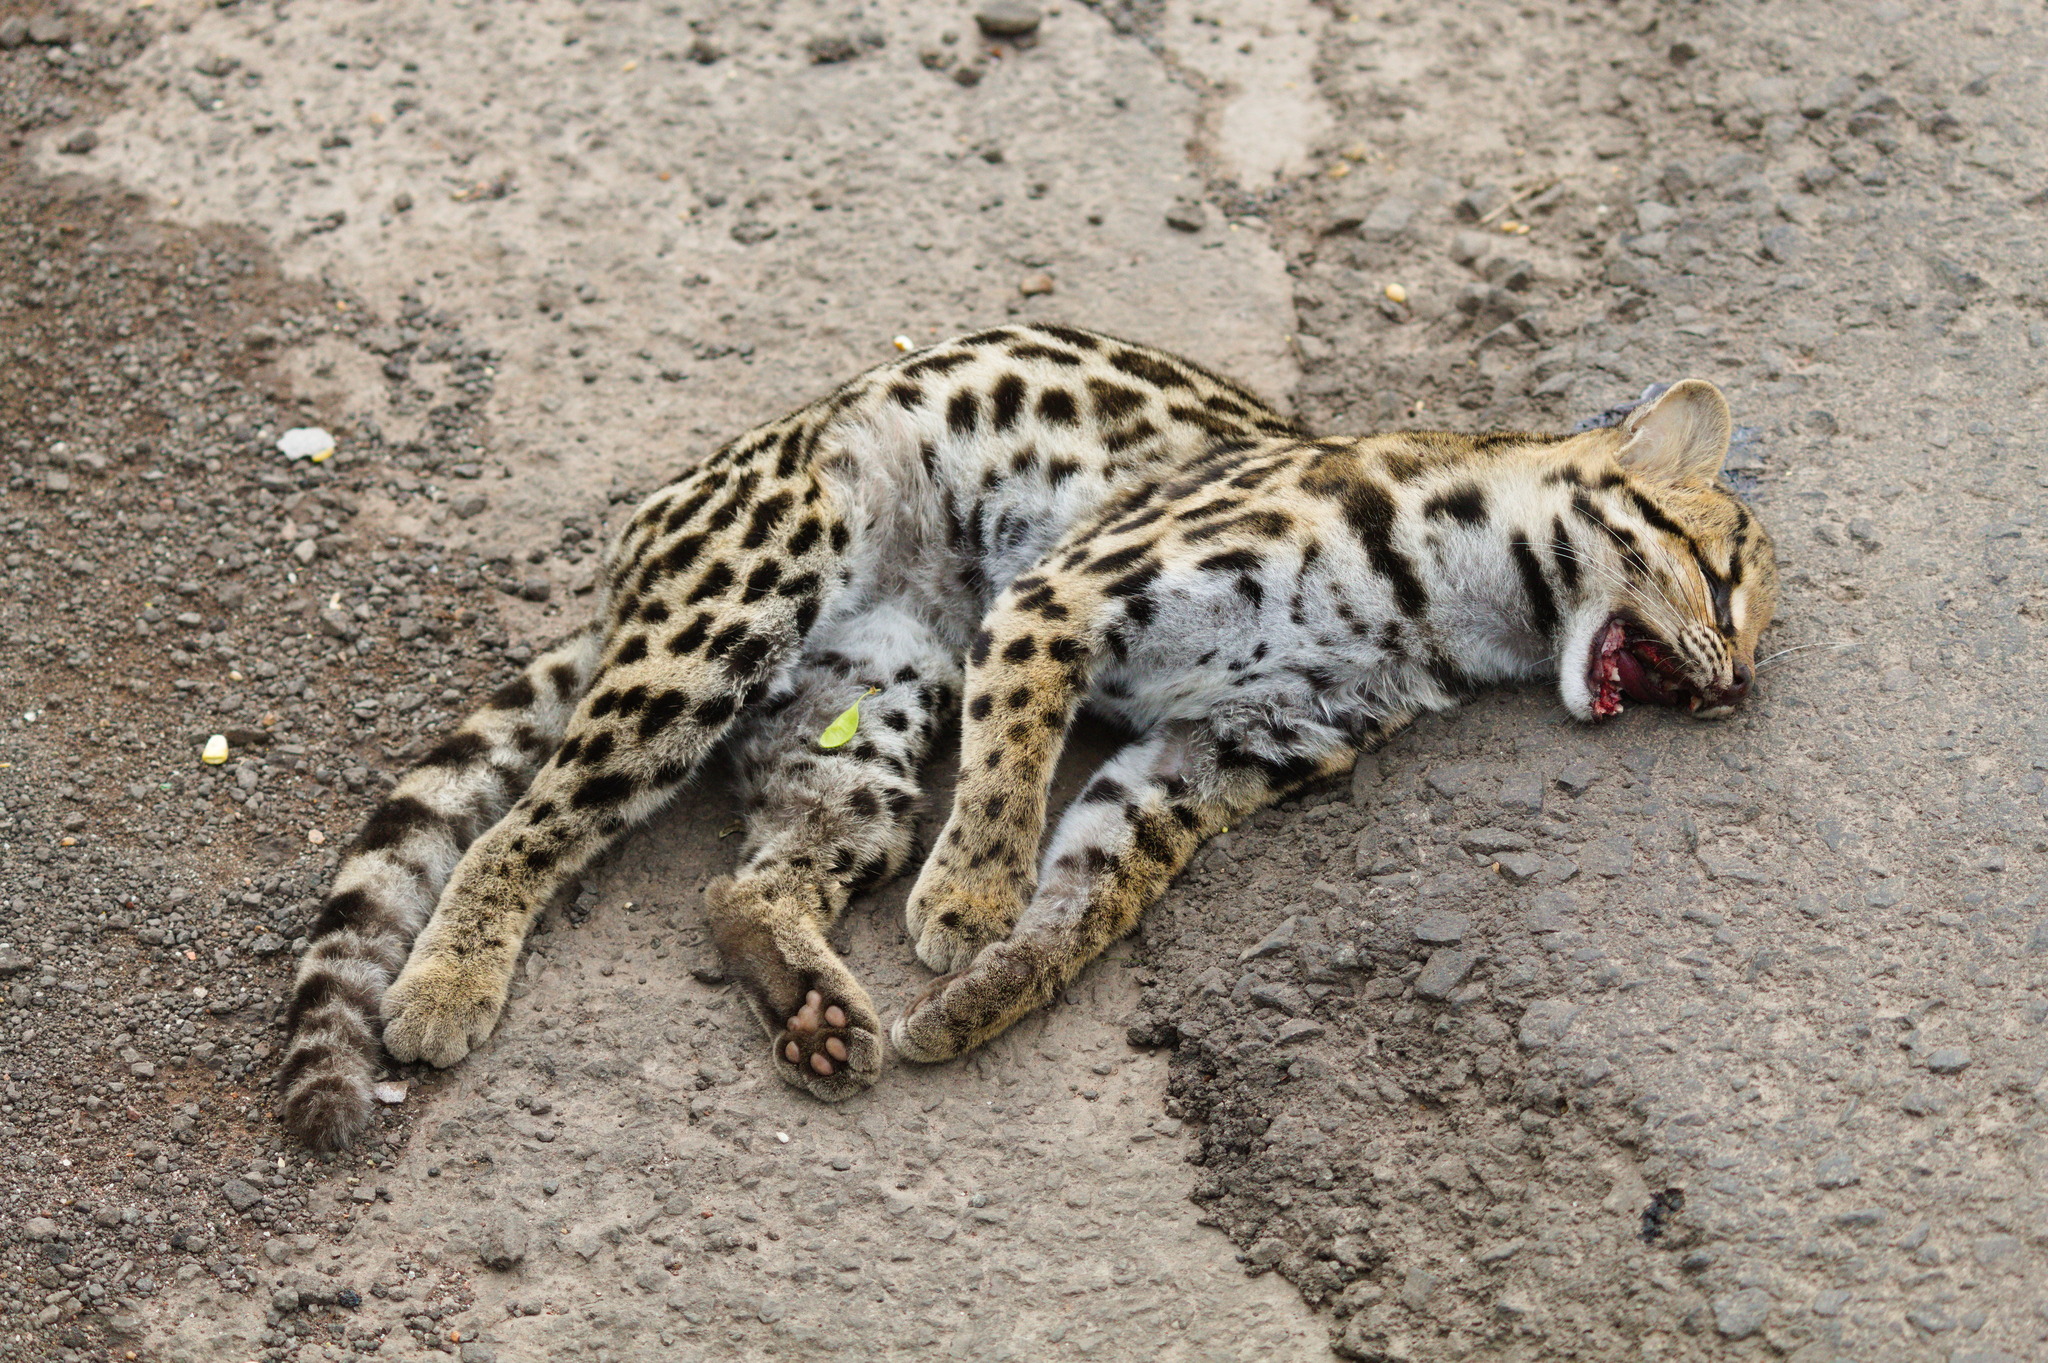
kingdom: Animalia
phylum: Chordata
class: Mammalia
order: Carnivora
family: Felidae
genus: Leopardus
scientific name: Leopardus wiedii
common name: Margay
